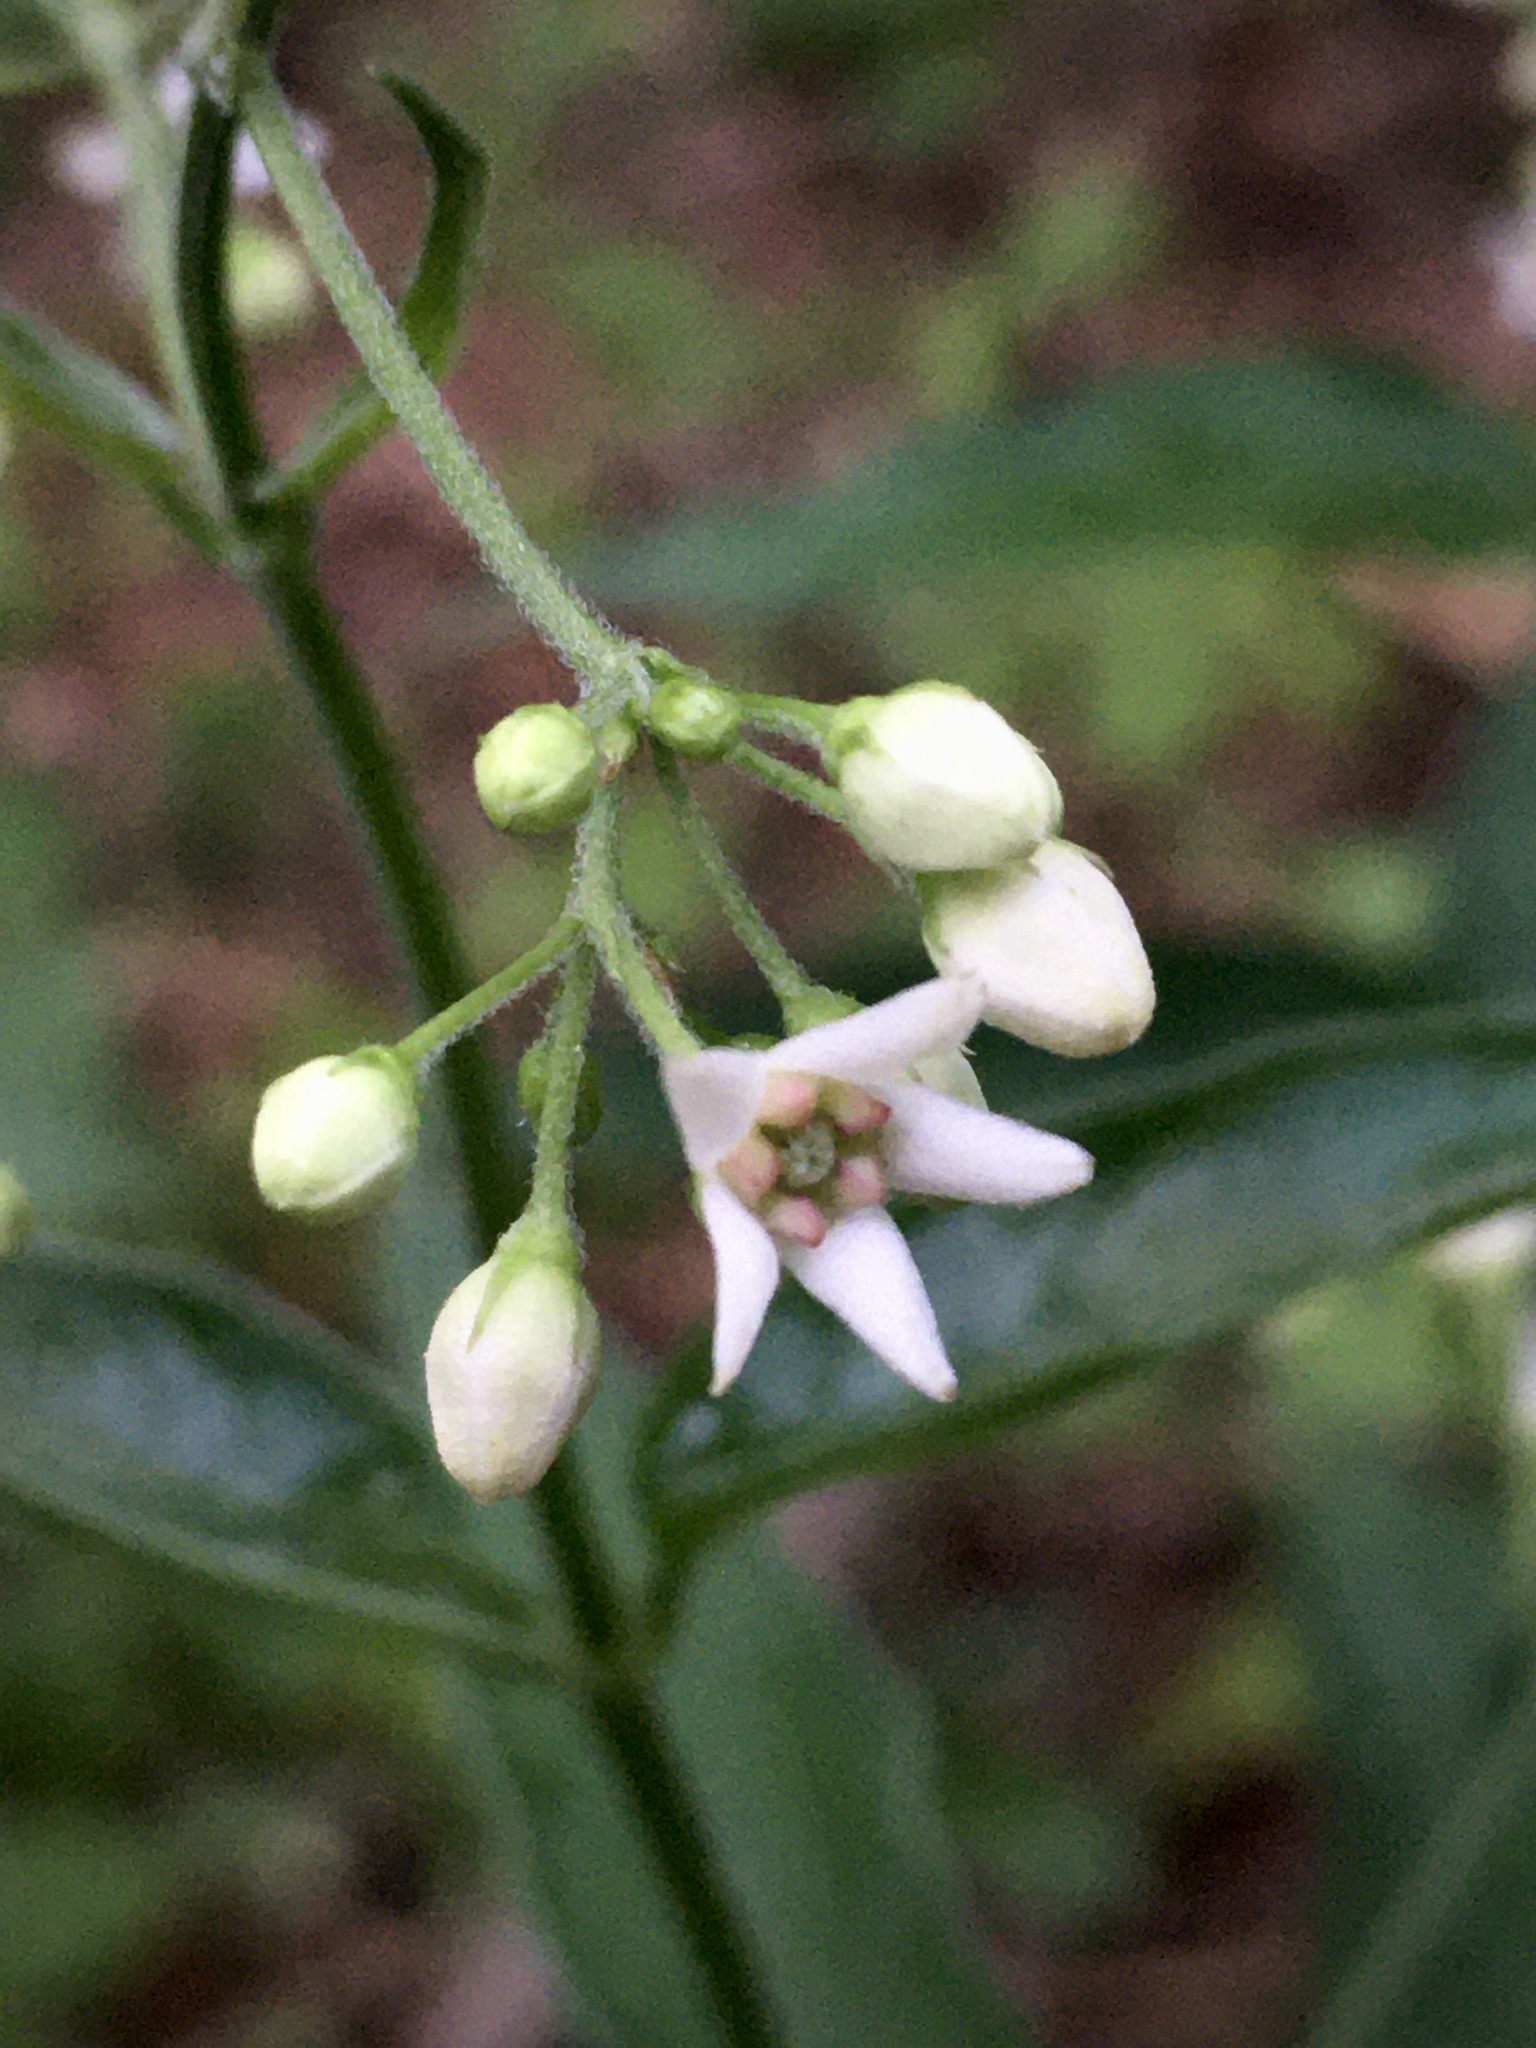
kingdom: Plantae
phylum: Tracheophyta
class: Magnoliopsida
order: Gentianales
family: Apocynaceae
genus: Vincetoxicum
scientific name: Vincetoxicum hirundinaria
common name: White swallowwort
